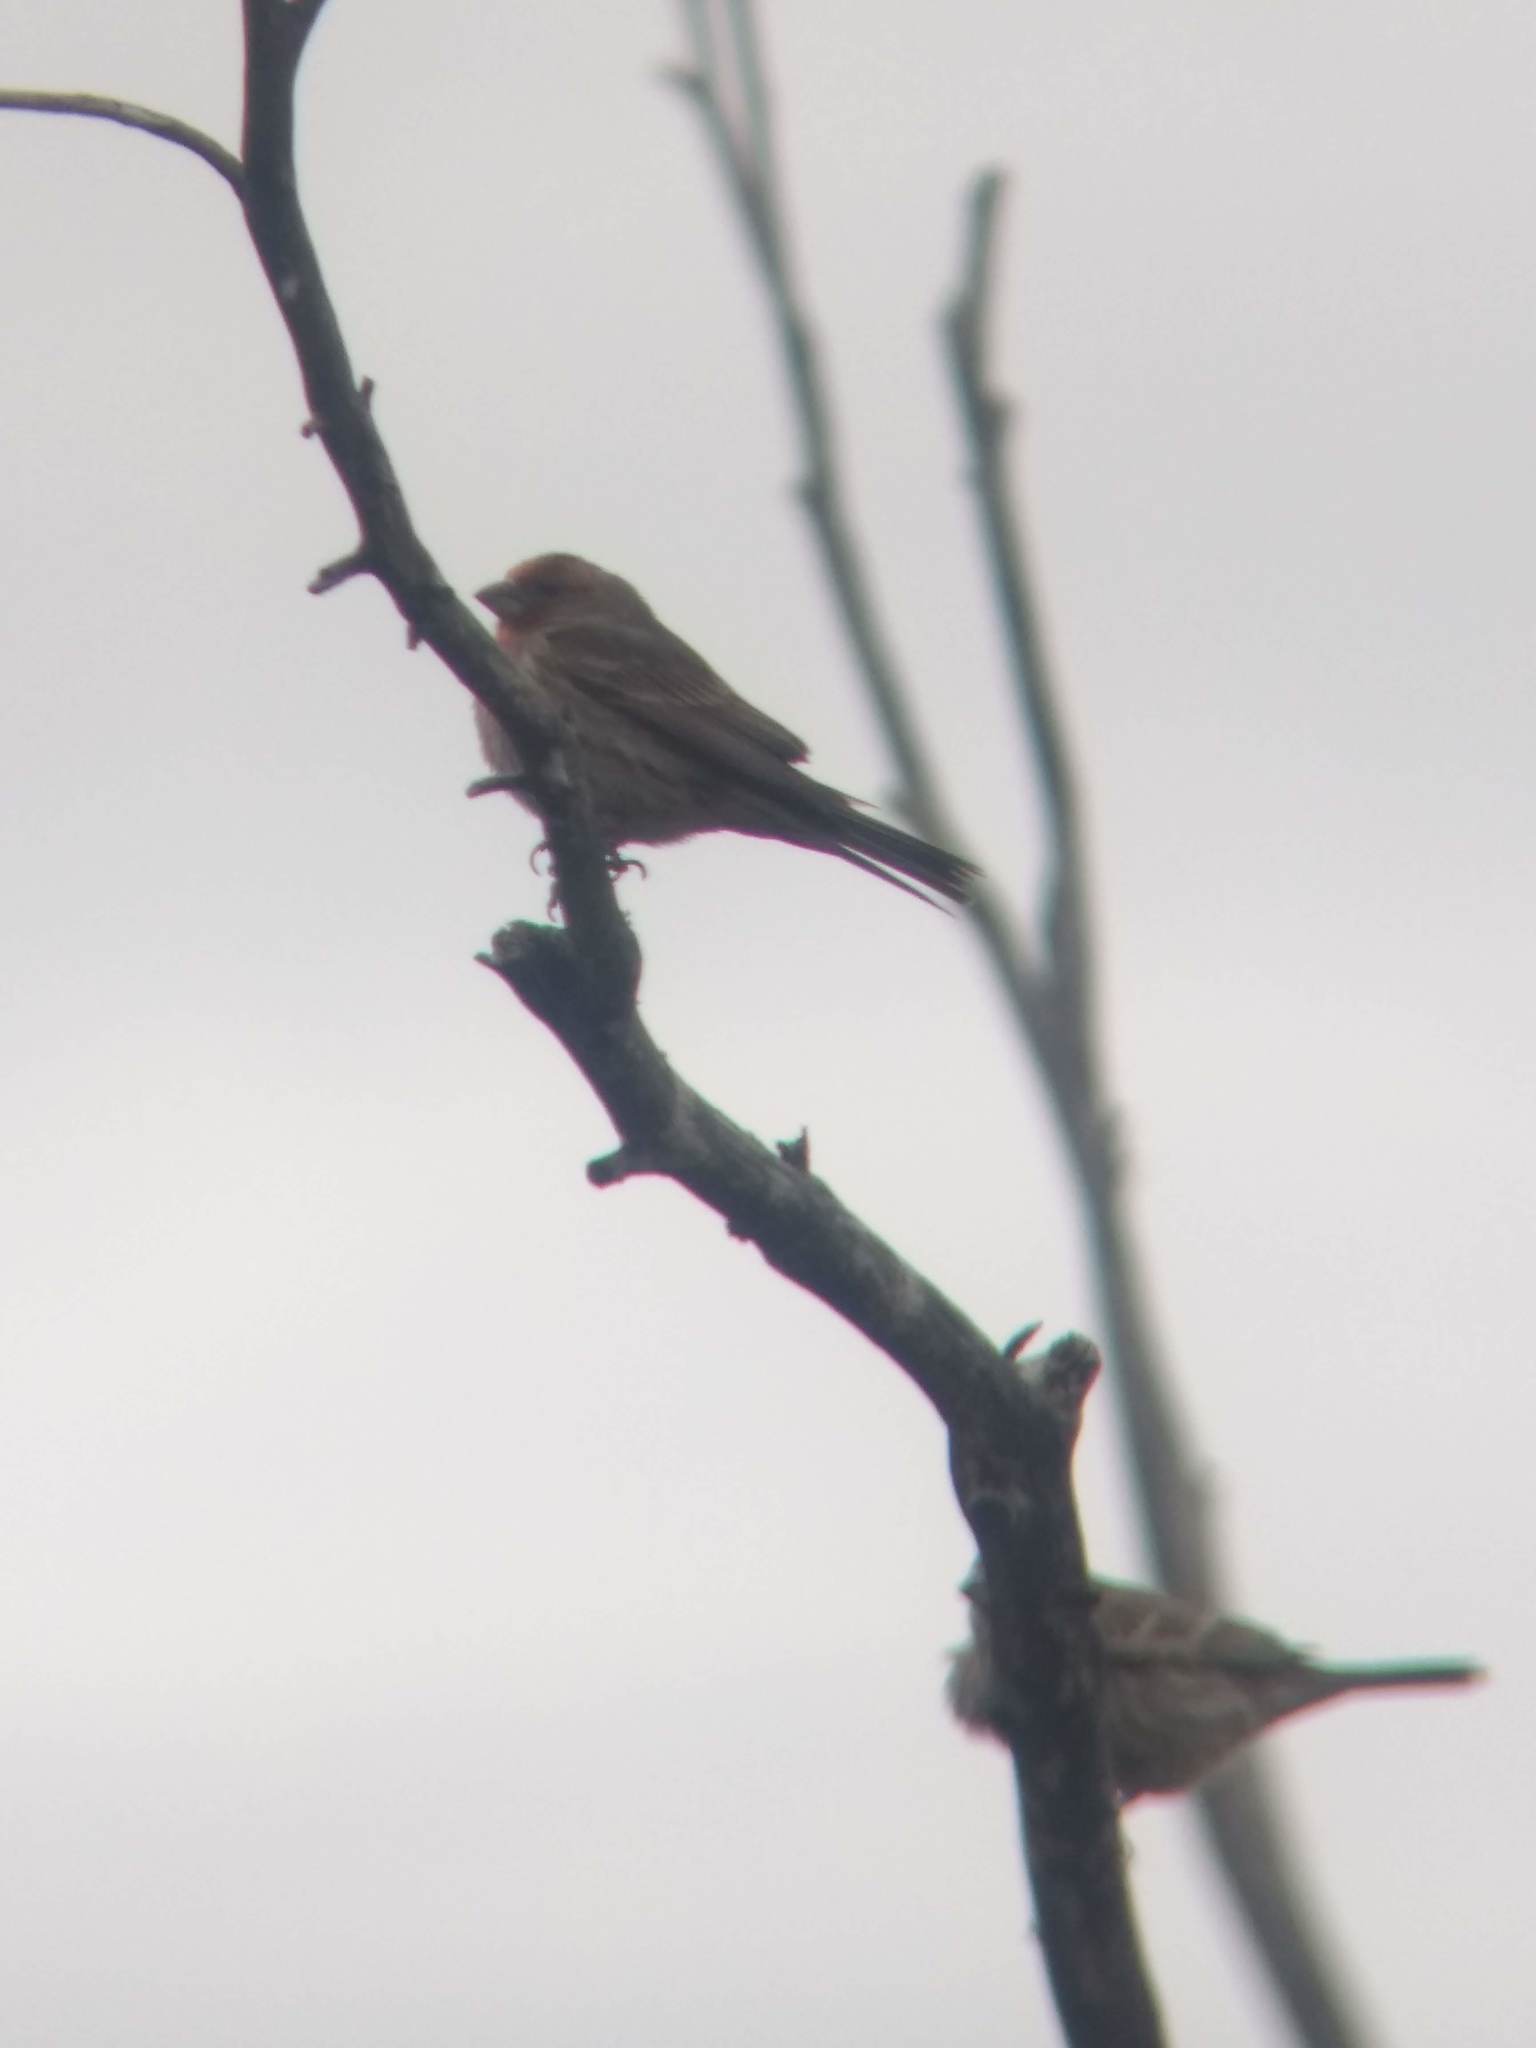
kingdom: Animalia
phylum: Chordata
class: Aves
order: Passeriformes
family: Fringillidae
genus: Haemorhous
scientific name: Haemorhous mexicanus
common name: House finch
